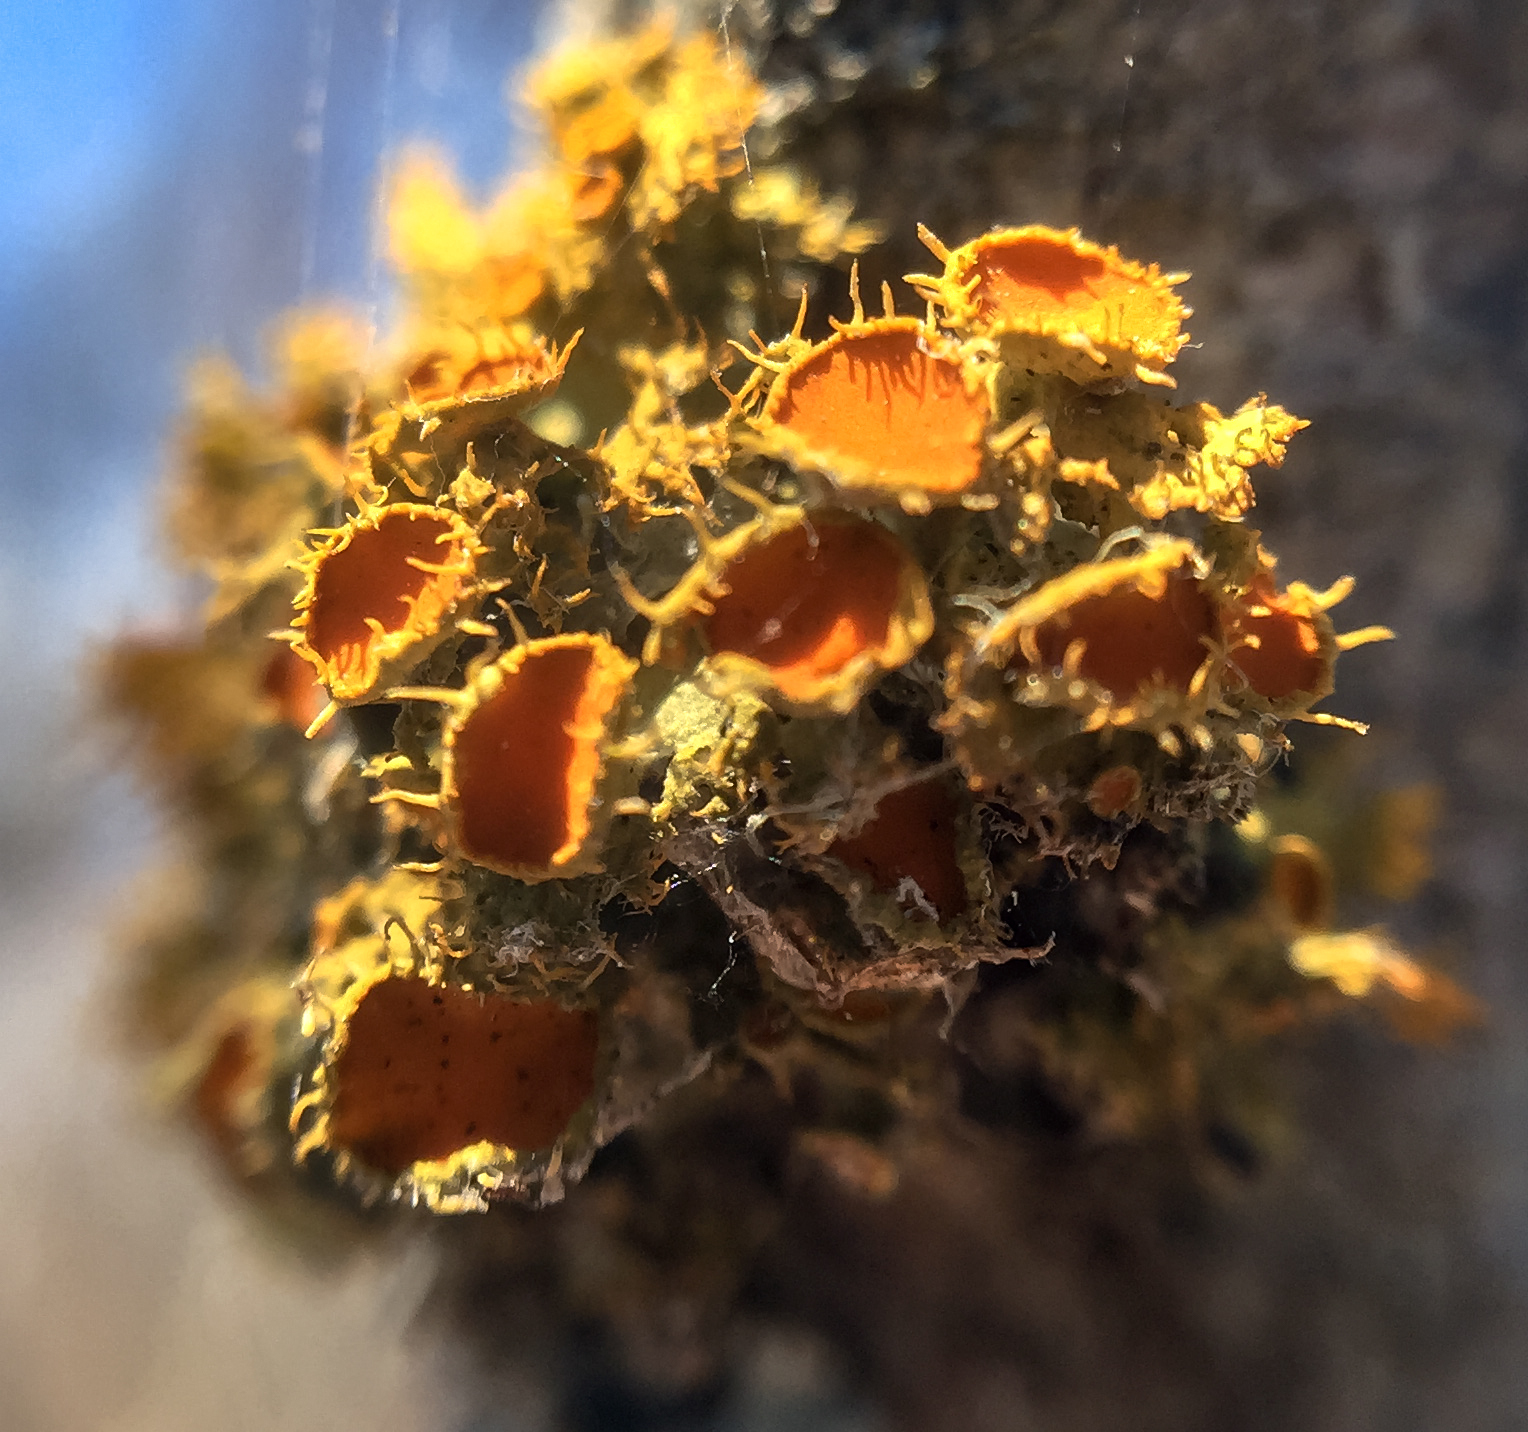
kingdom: Fungi
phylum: Ascomycota
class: Lecanoromycetes
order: Teloschistales
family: Teloschistaceae
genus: Niorma
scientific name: Niorma chrysophthalma
